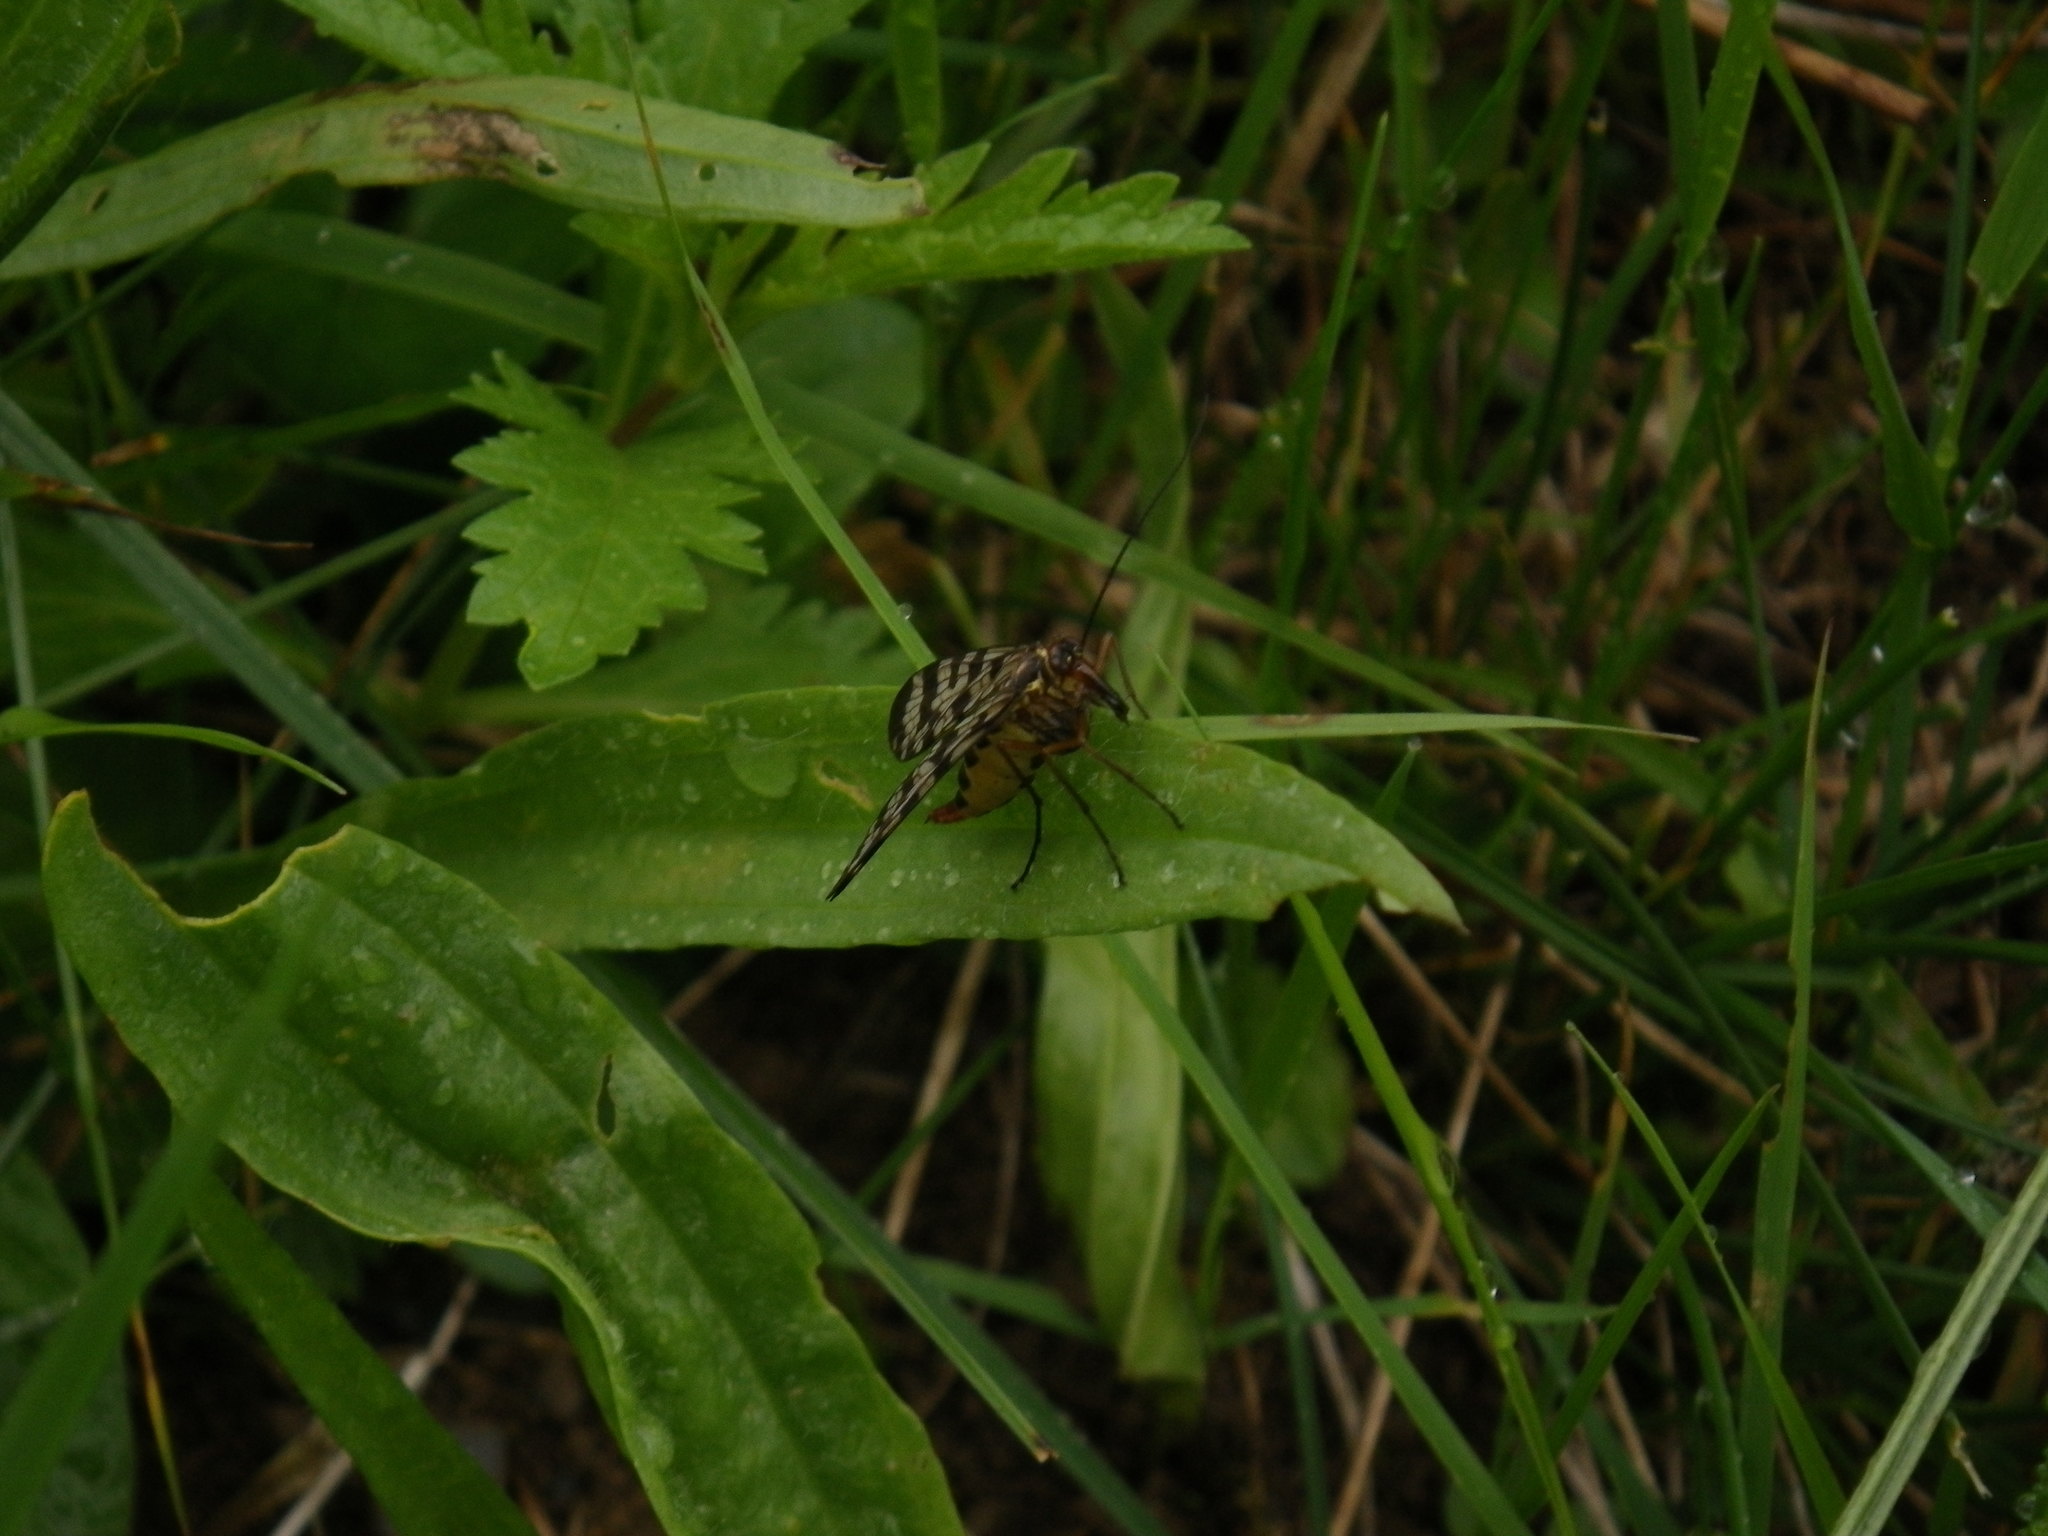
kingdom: Animalia
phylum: Arthropoda
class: Insecta
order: Mecoptera
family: Panorpidae
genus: Panorpa
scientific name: Panorpa meridionalis
